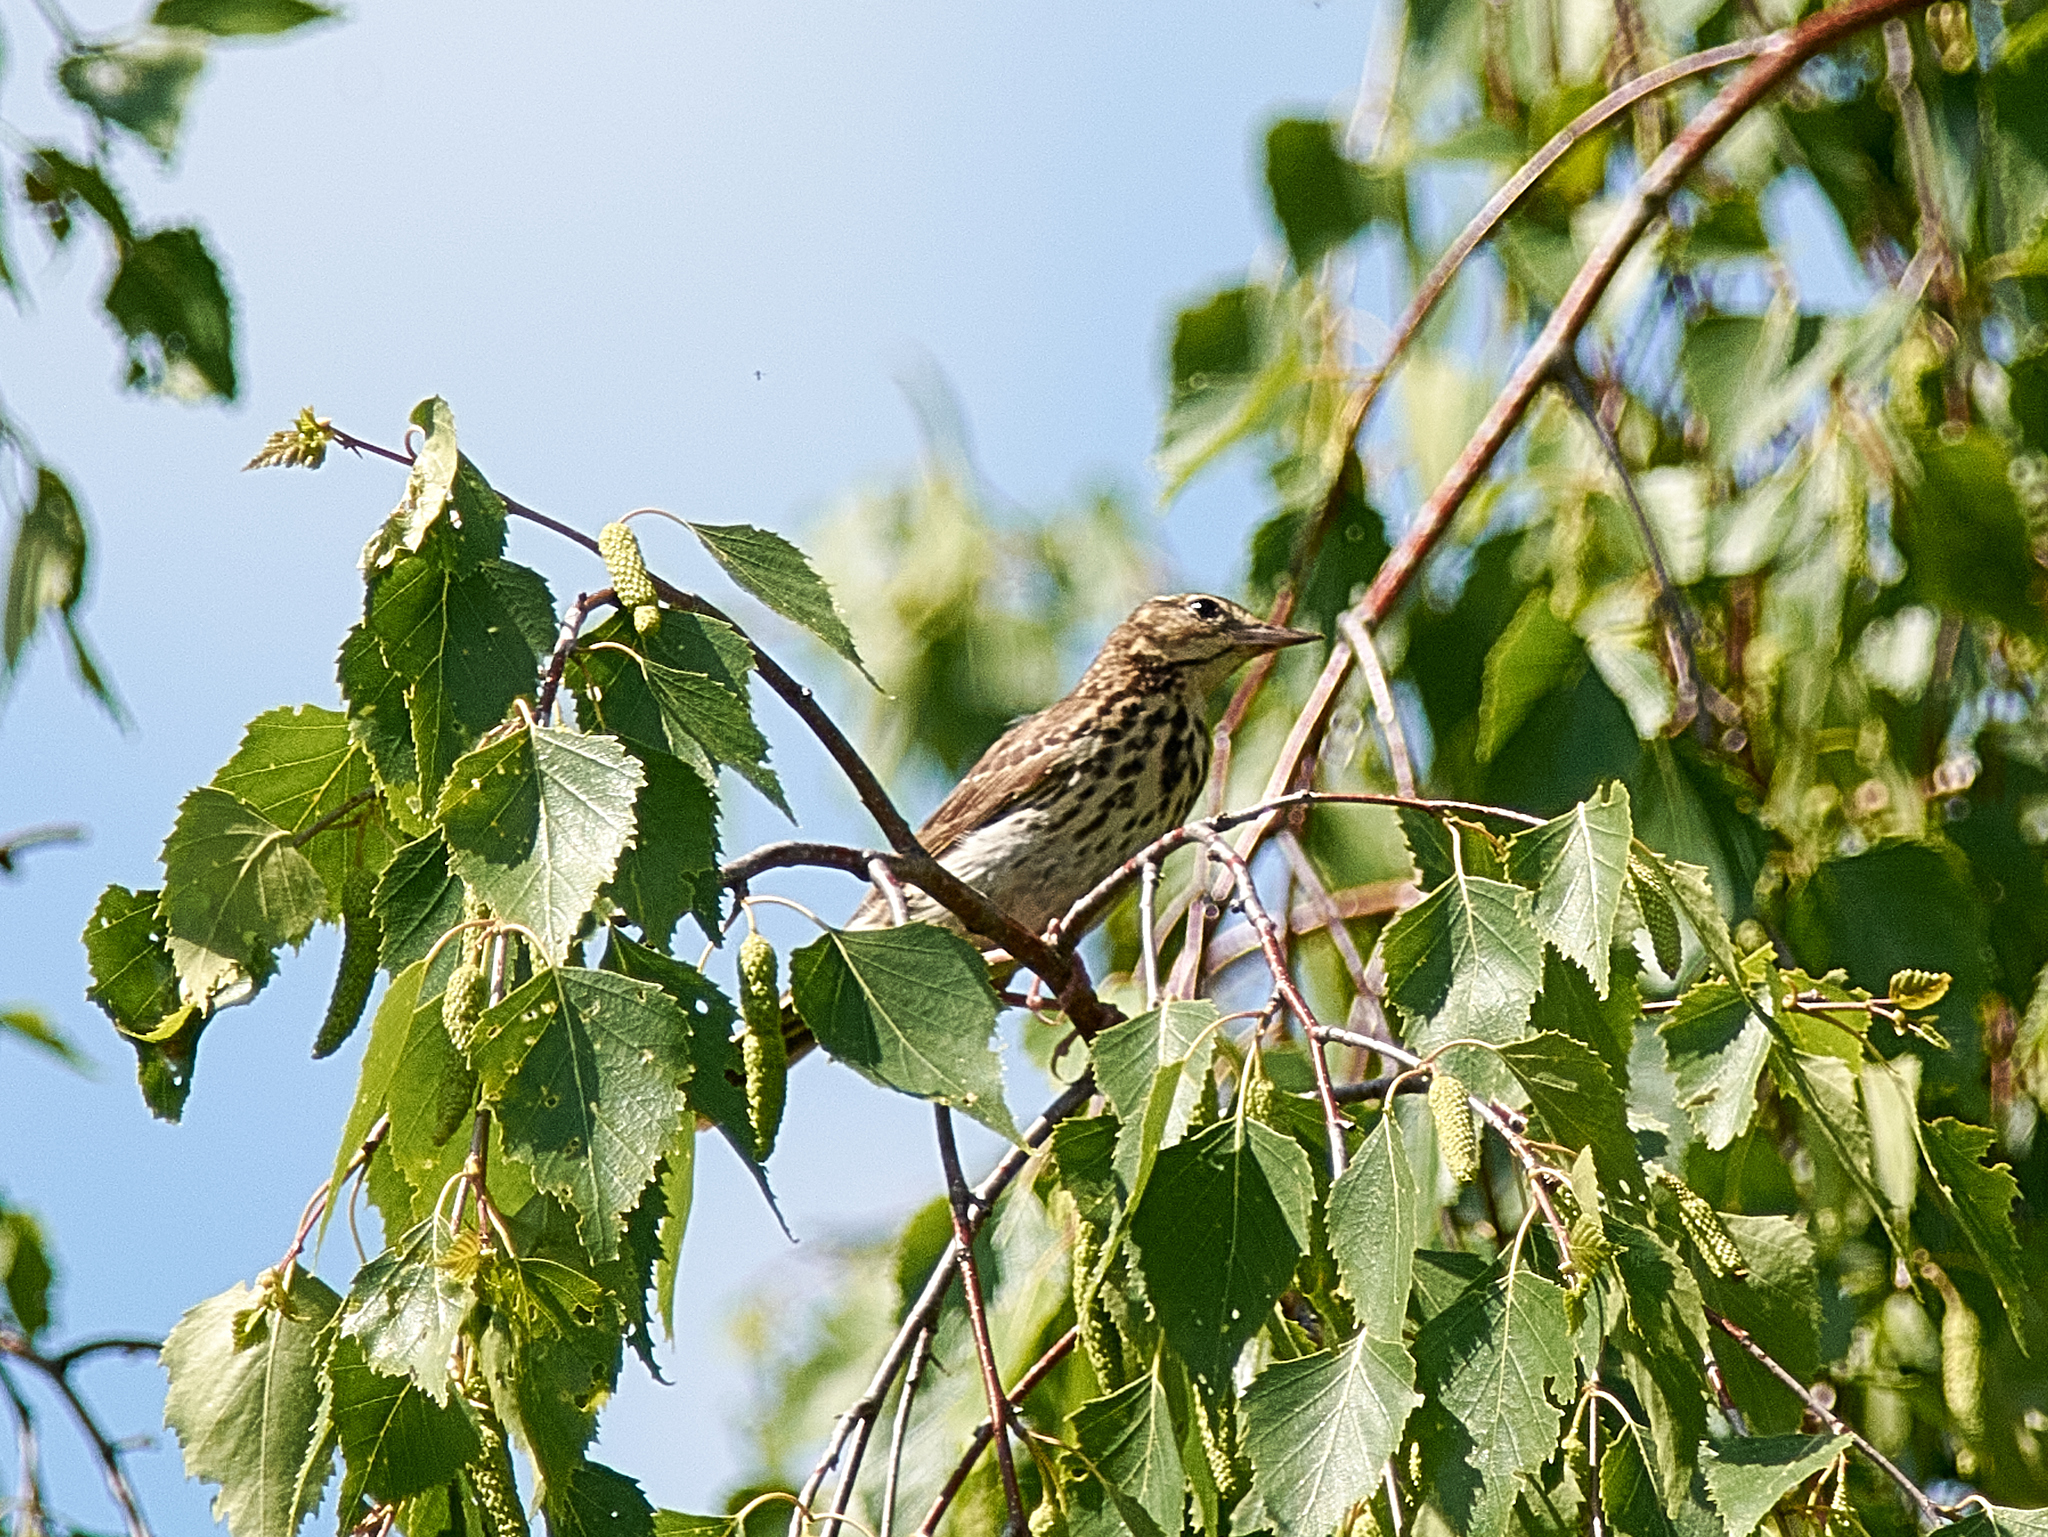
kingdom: Animalia
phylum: Chordata
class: Aves
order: Passeriformes
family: Motacillidae
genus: Anthus
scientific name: Anthus trivialis
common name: Tree pipit
